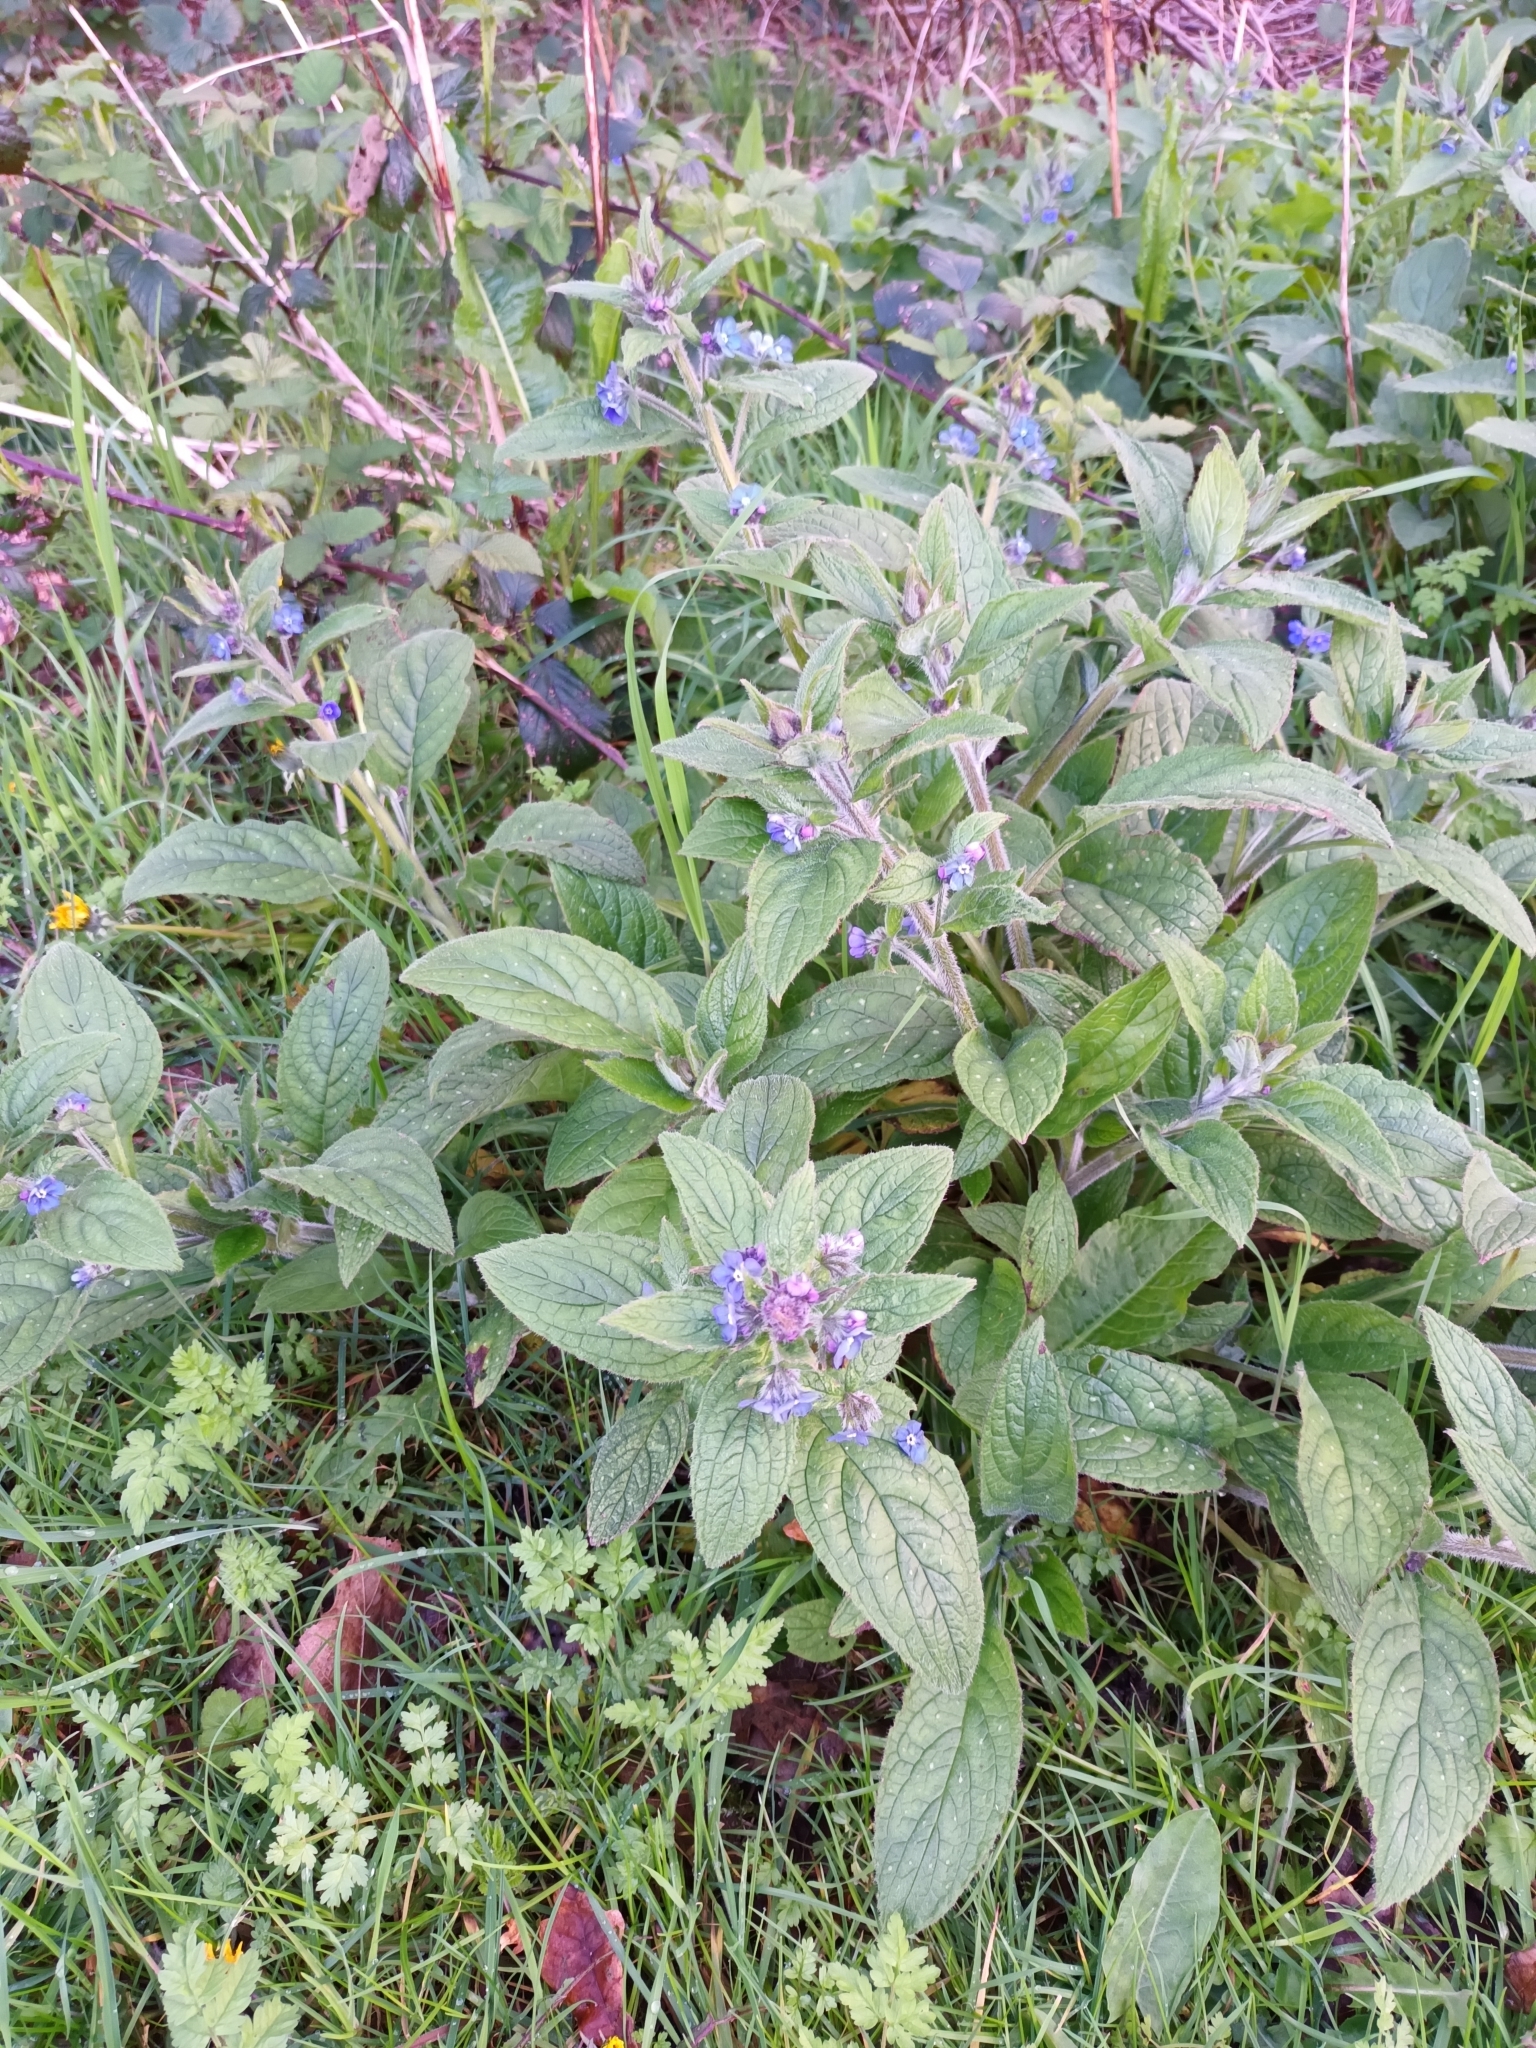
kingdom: Plantae
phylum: Tracheophyta
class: Magnoliopsida
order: Boraginales
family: Boraginaceae
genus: Pentaglottis
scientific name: Pentaglottis sempervirens
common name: Green alkanet
